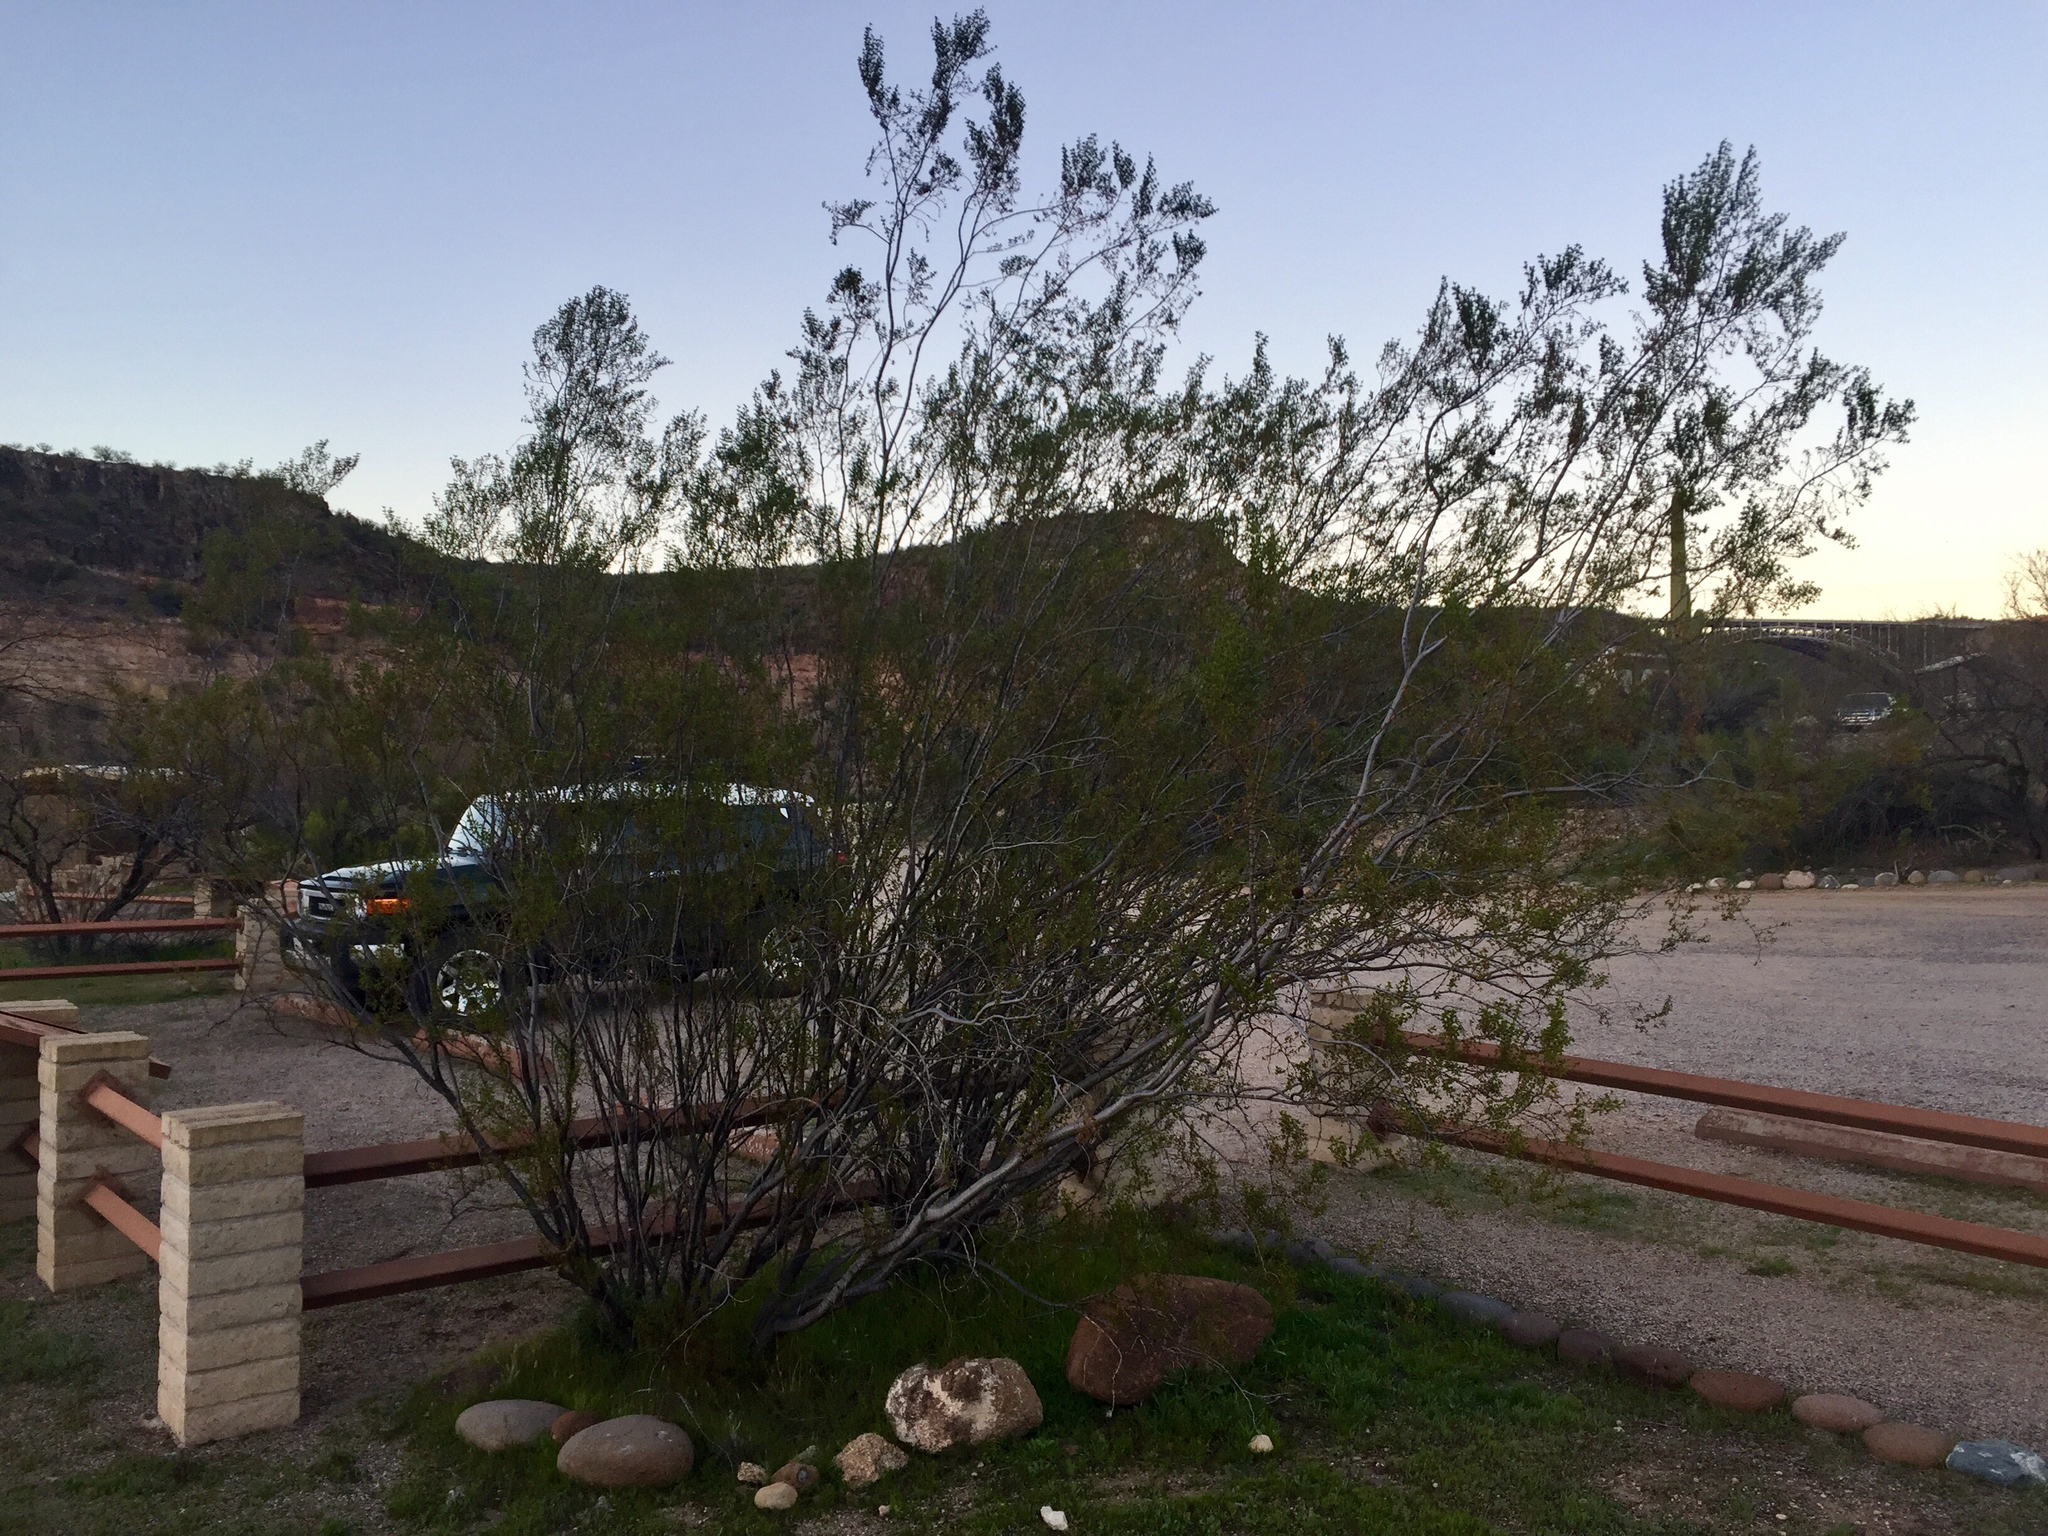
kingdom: Plantae
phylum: Tracheophyta
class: Magnoliopsida
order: Zygophyllales
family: Zygophyllaceae
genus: Larrea
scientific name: Larrea tridentata
